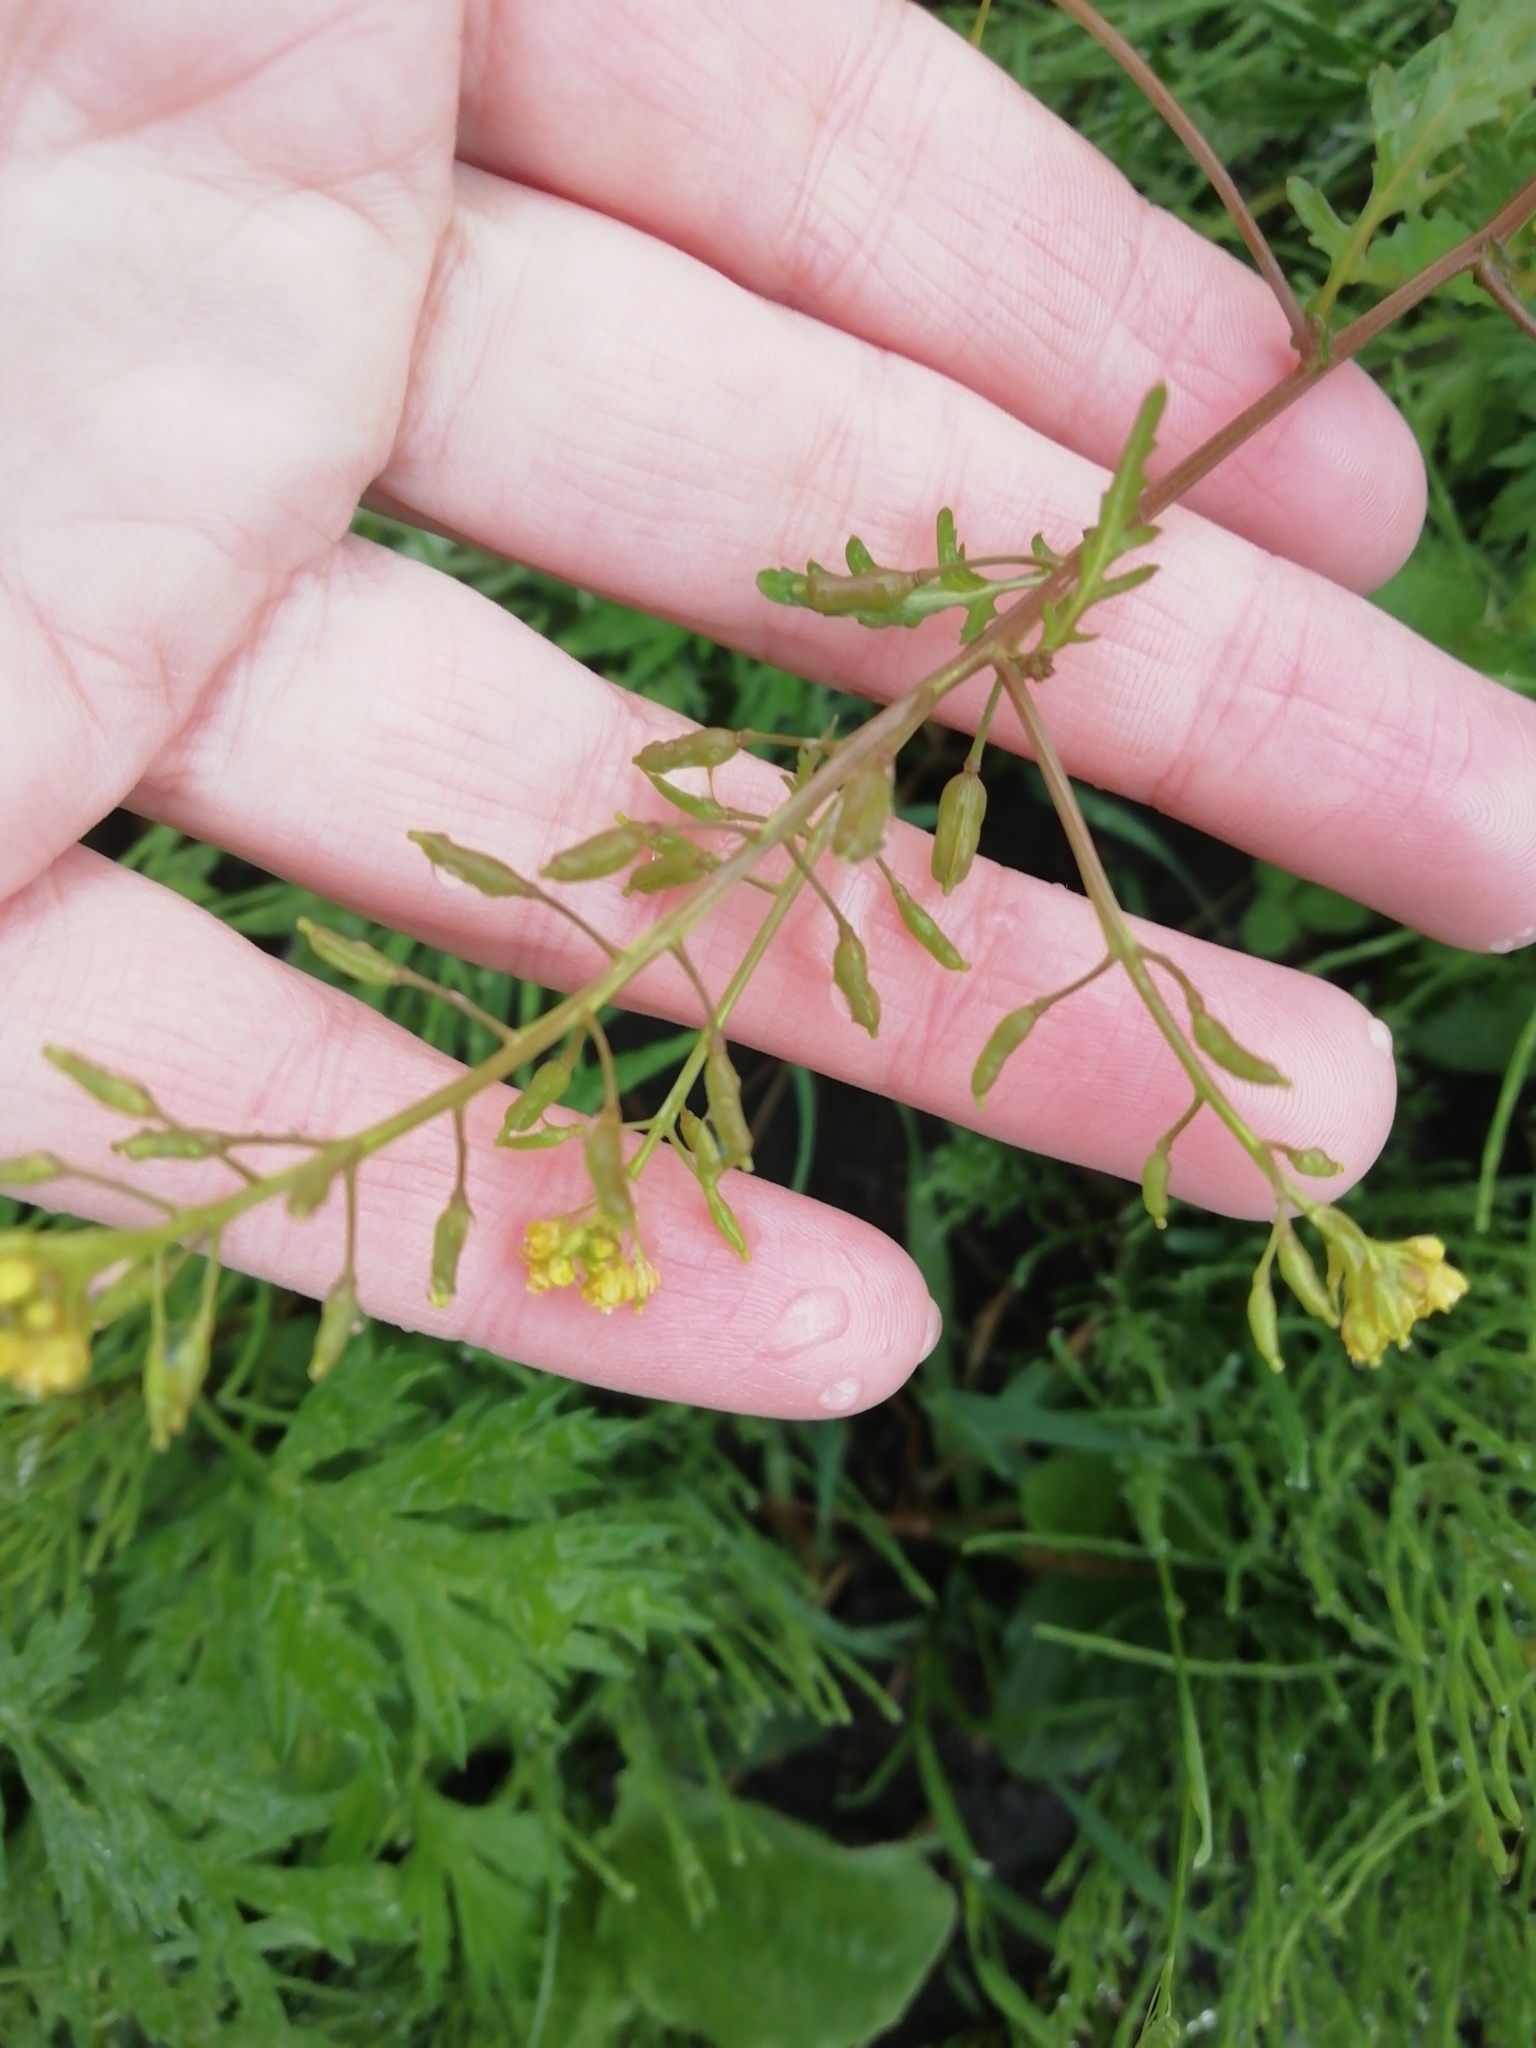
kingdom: Plantae
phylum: Tracheophyta
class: Magnoliopsida
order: Brassicales
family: Brassicaceae
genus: Rorippa
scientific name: Rorippa palustris
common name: Marsh yellow-cress
